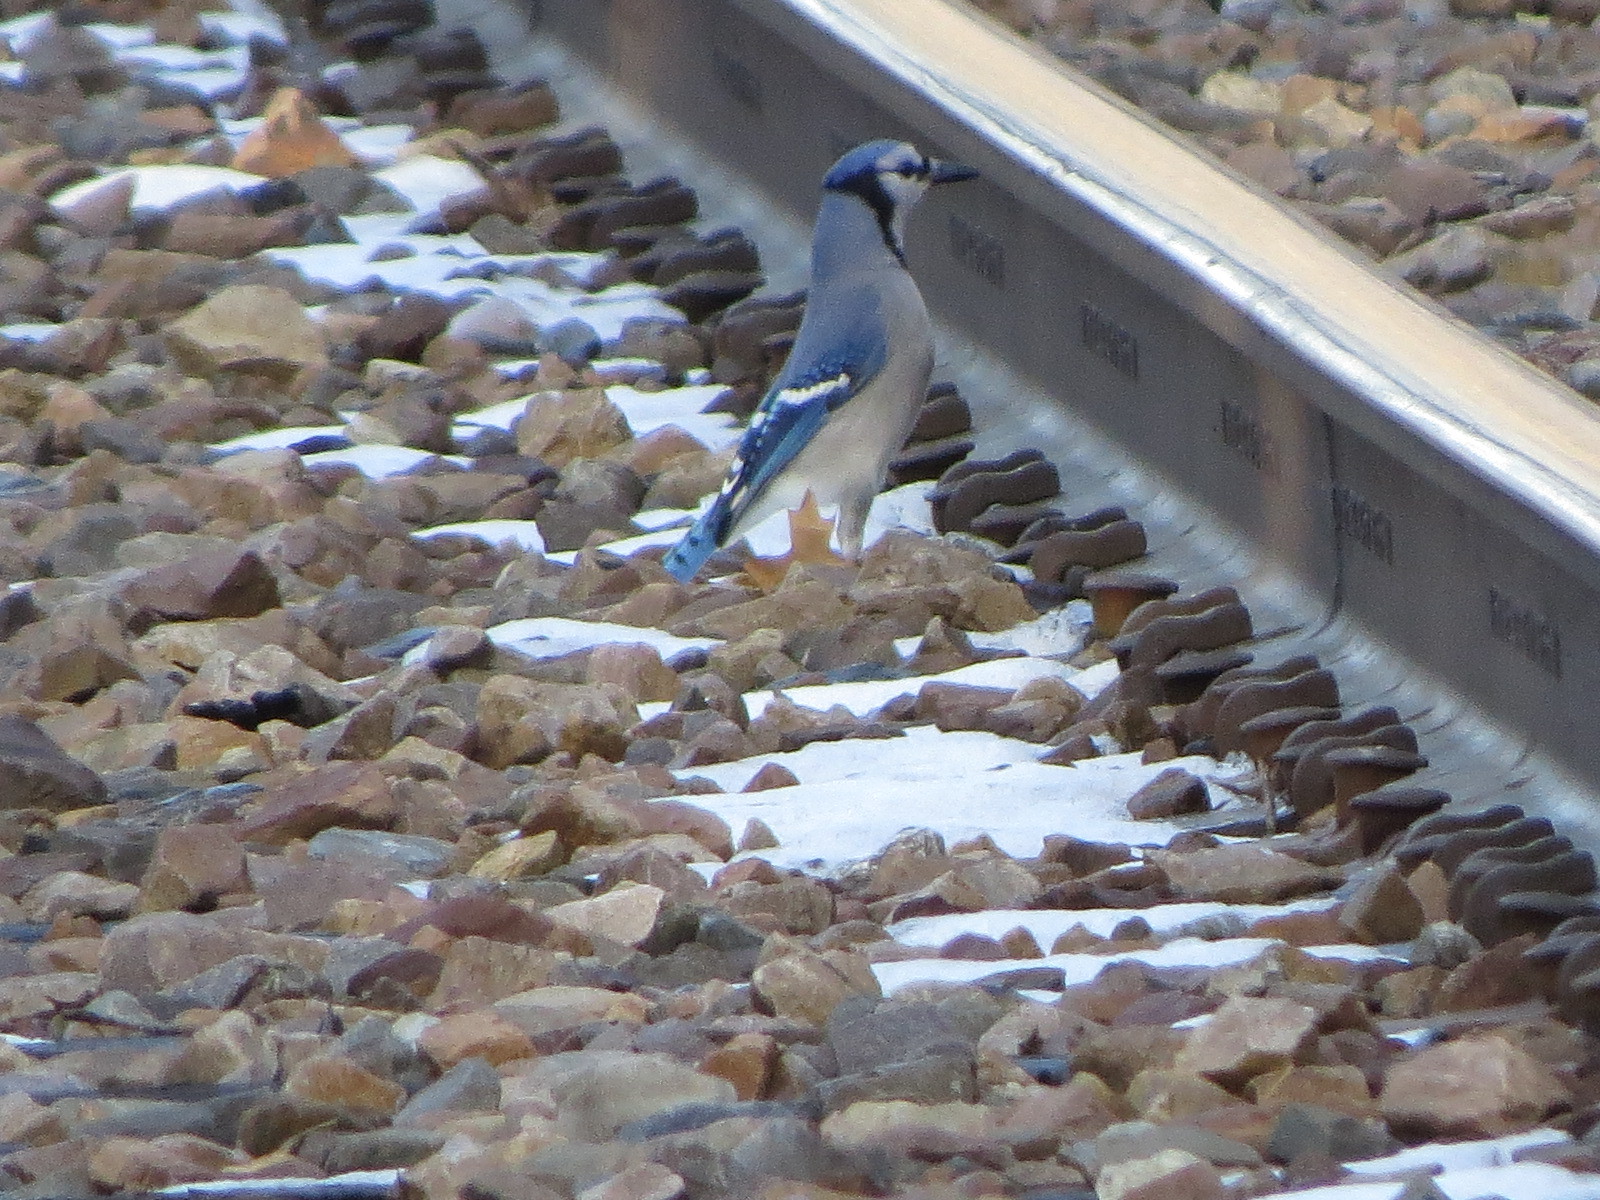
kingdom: Animalia
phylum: Chordata
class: Aves
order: Passeriformes
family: Corvidae
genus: Cyanocitta
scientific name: Cyanocitta cristata
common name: Blue jay
